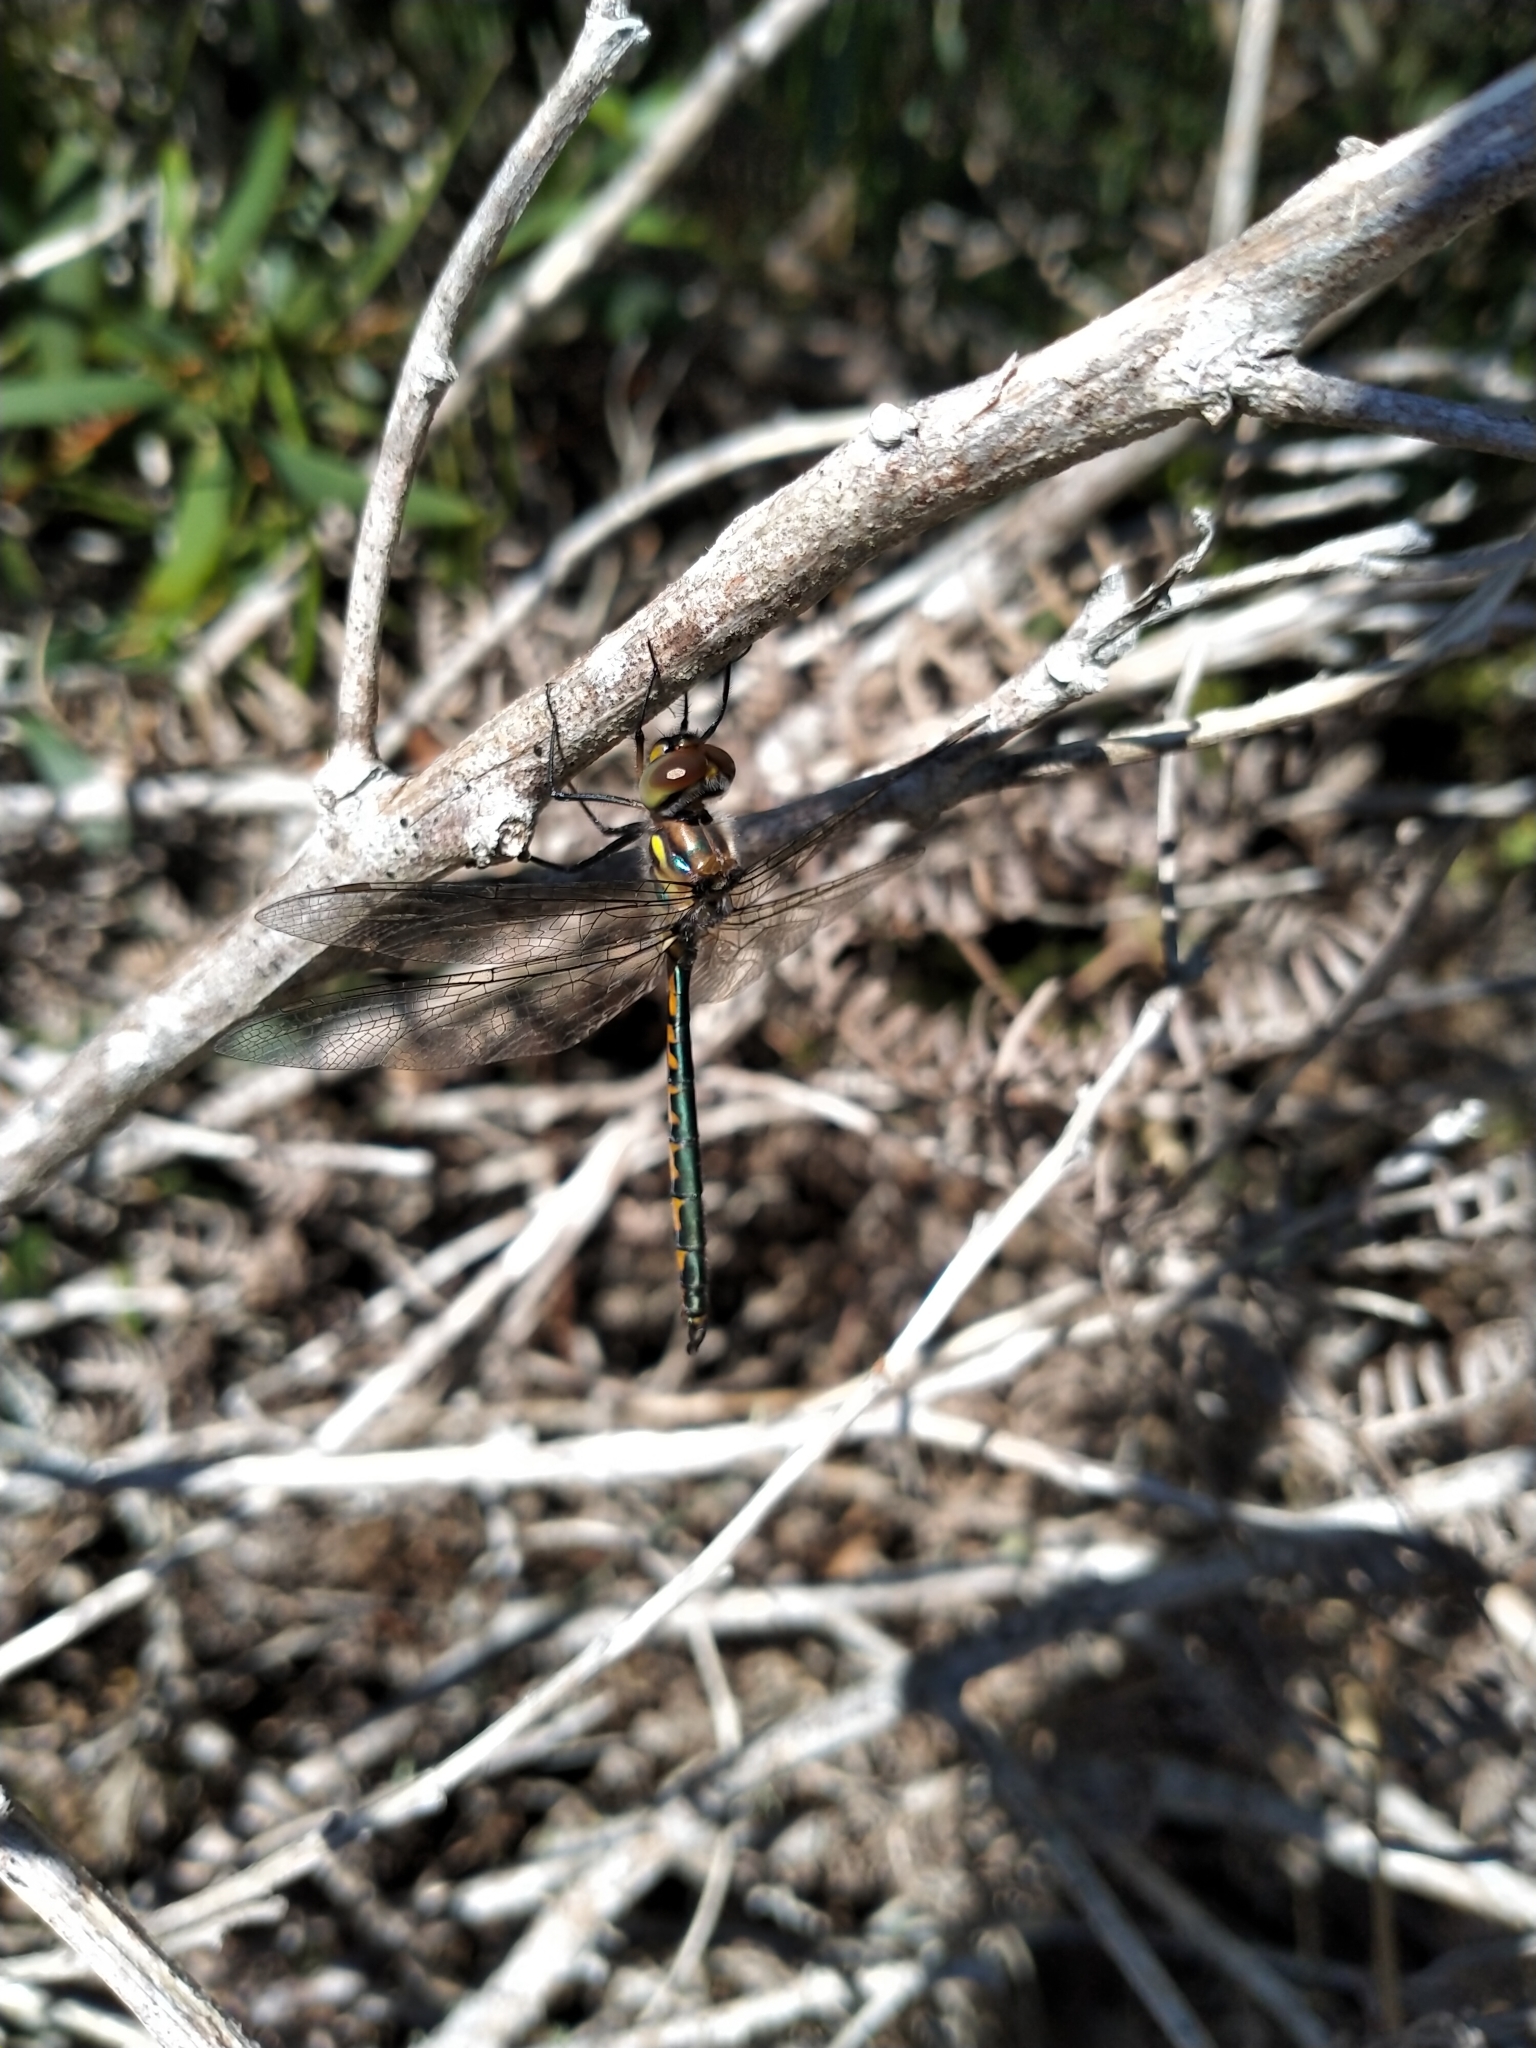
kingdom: Animalia
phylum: Arthropoda
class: Insecta
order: Odonata
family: Corduliidae
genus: Hemicordulia
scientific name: Hemicordulia australiae
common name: Sentry dragonfly
